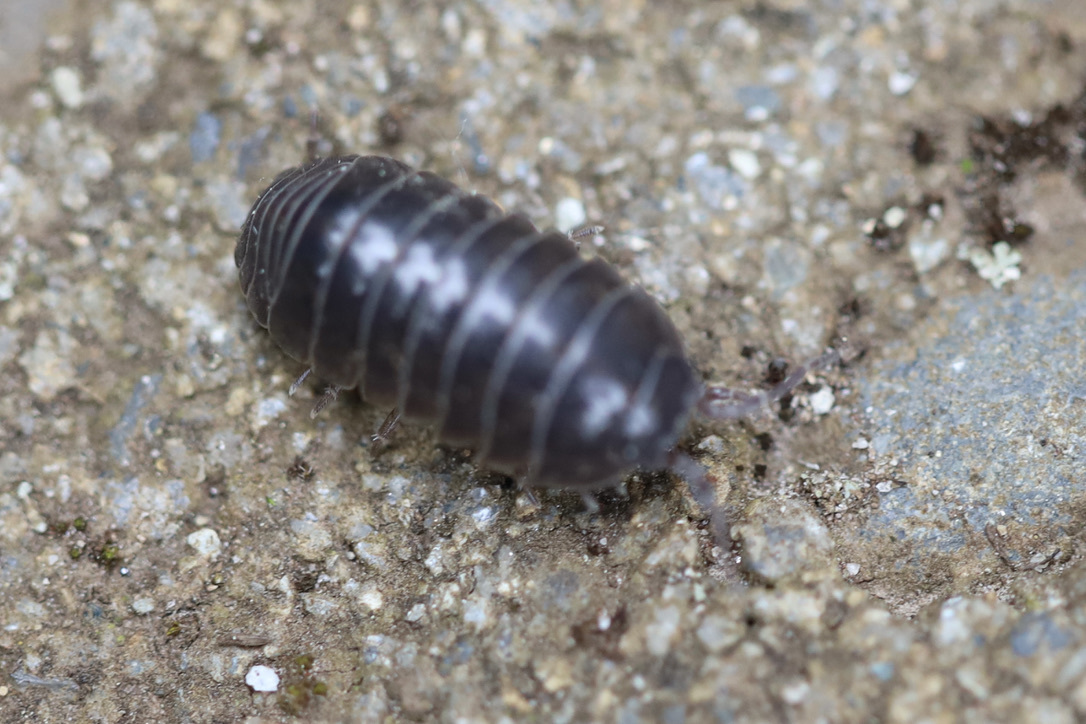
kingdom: Animalia
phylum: Arthropoda
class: Malacostraca
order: Isopoda
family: Armadillidiidae
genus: Armadillidium
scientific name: Armadillidium vulgare
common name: Common pill woodlouse
